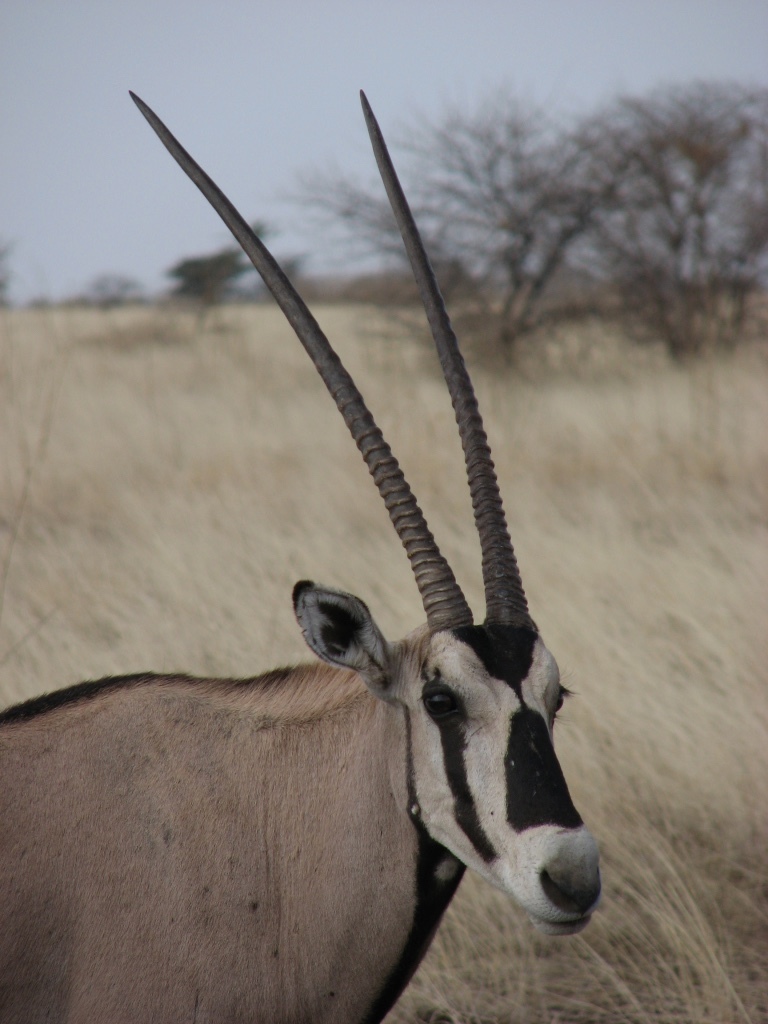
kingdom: Animalia
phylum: Chordata
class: Mammalia
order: Artiodactyla
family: Bovidae
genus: Oryx
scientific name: Oryx beisa
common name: Beisa
